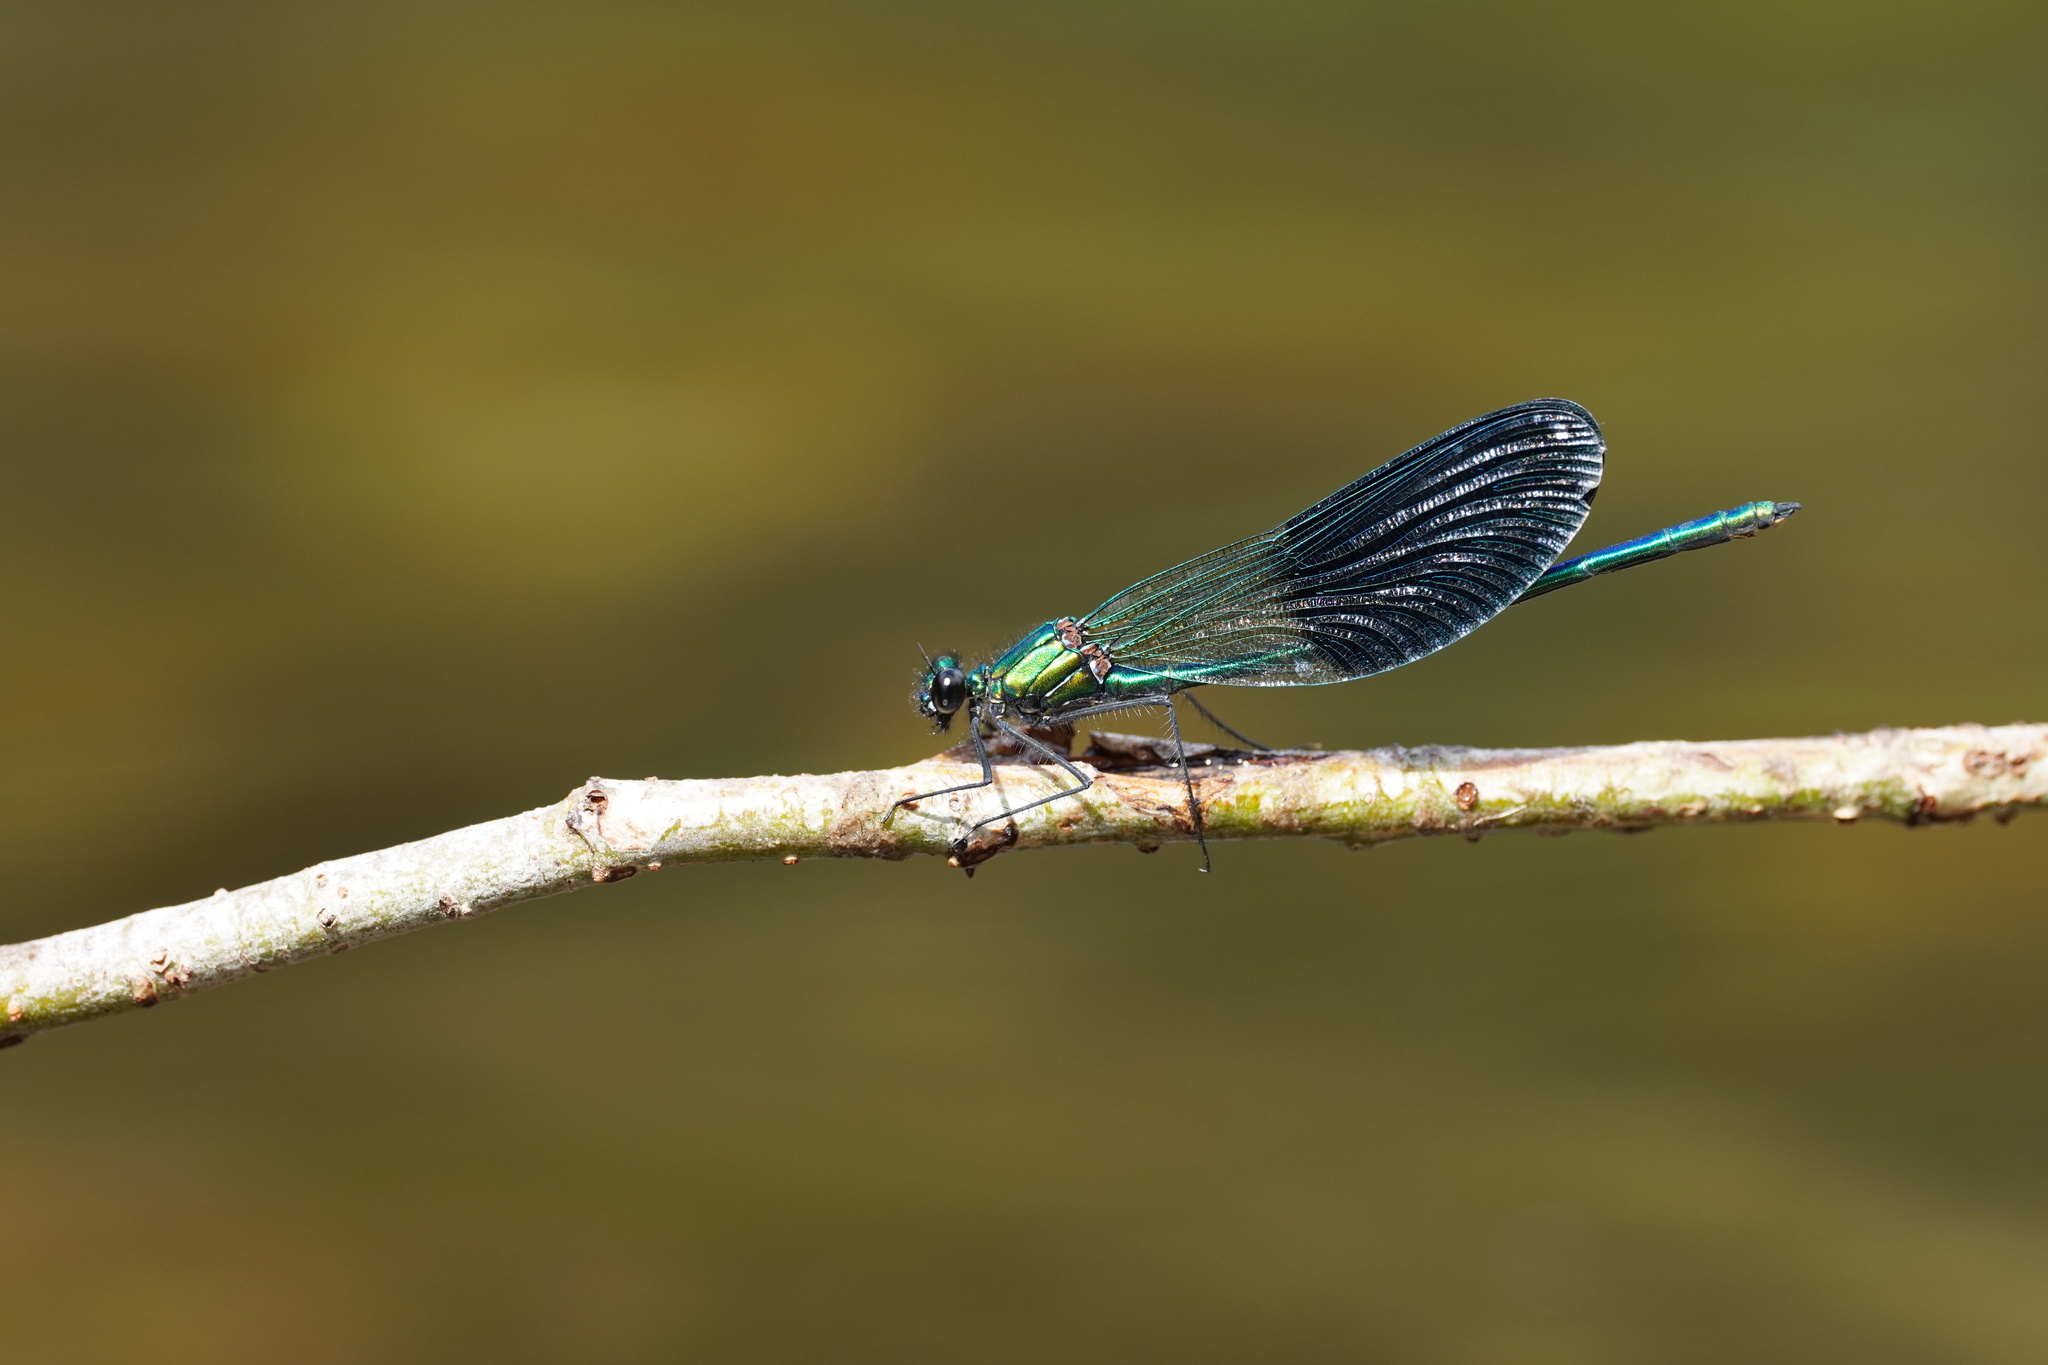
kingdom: Animalia
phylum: Arthropoda
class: Insecta
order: Odonata
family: Calopterygidae
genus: Calopteryx
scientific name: Calopteryx xanthostoma
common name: Western demoiselle
